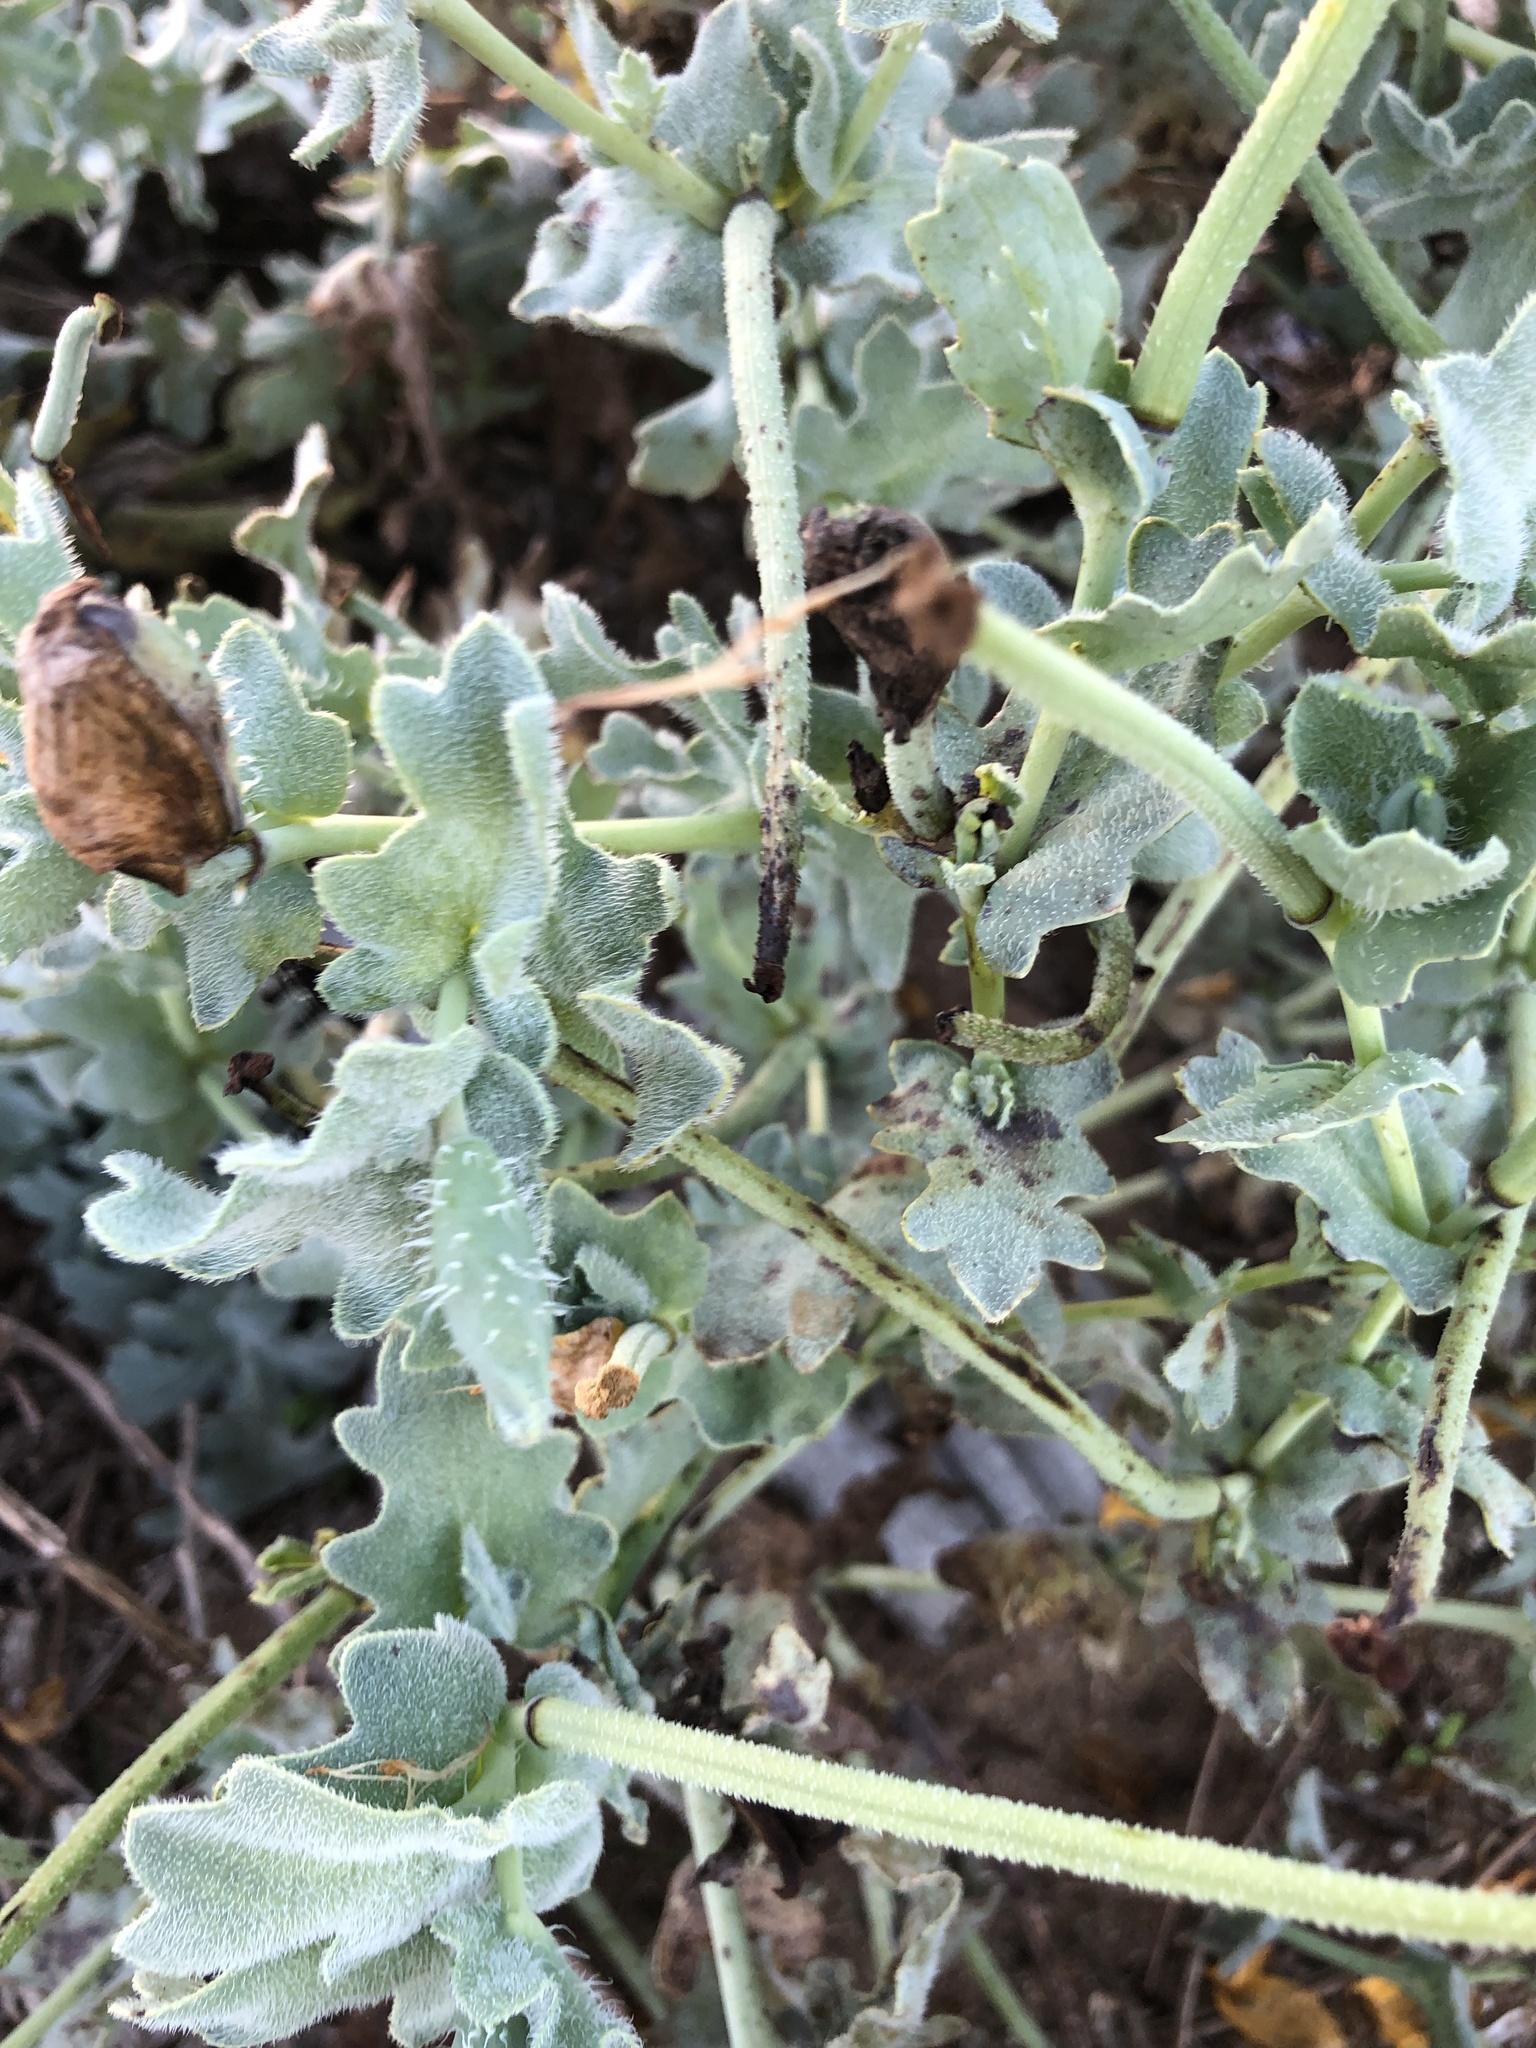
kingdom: Plantae
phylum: Tracheophyta
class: Magnoliopsida
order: Ranunculales
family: Papaveraceae
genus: Glaucium
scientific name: Glaucium flavum
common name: Yellow horned-poppy
